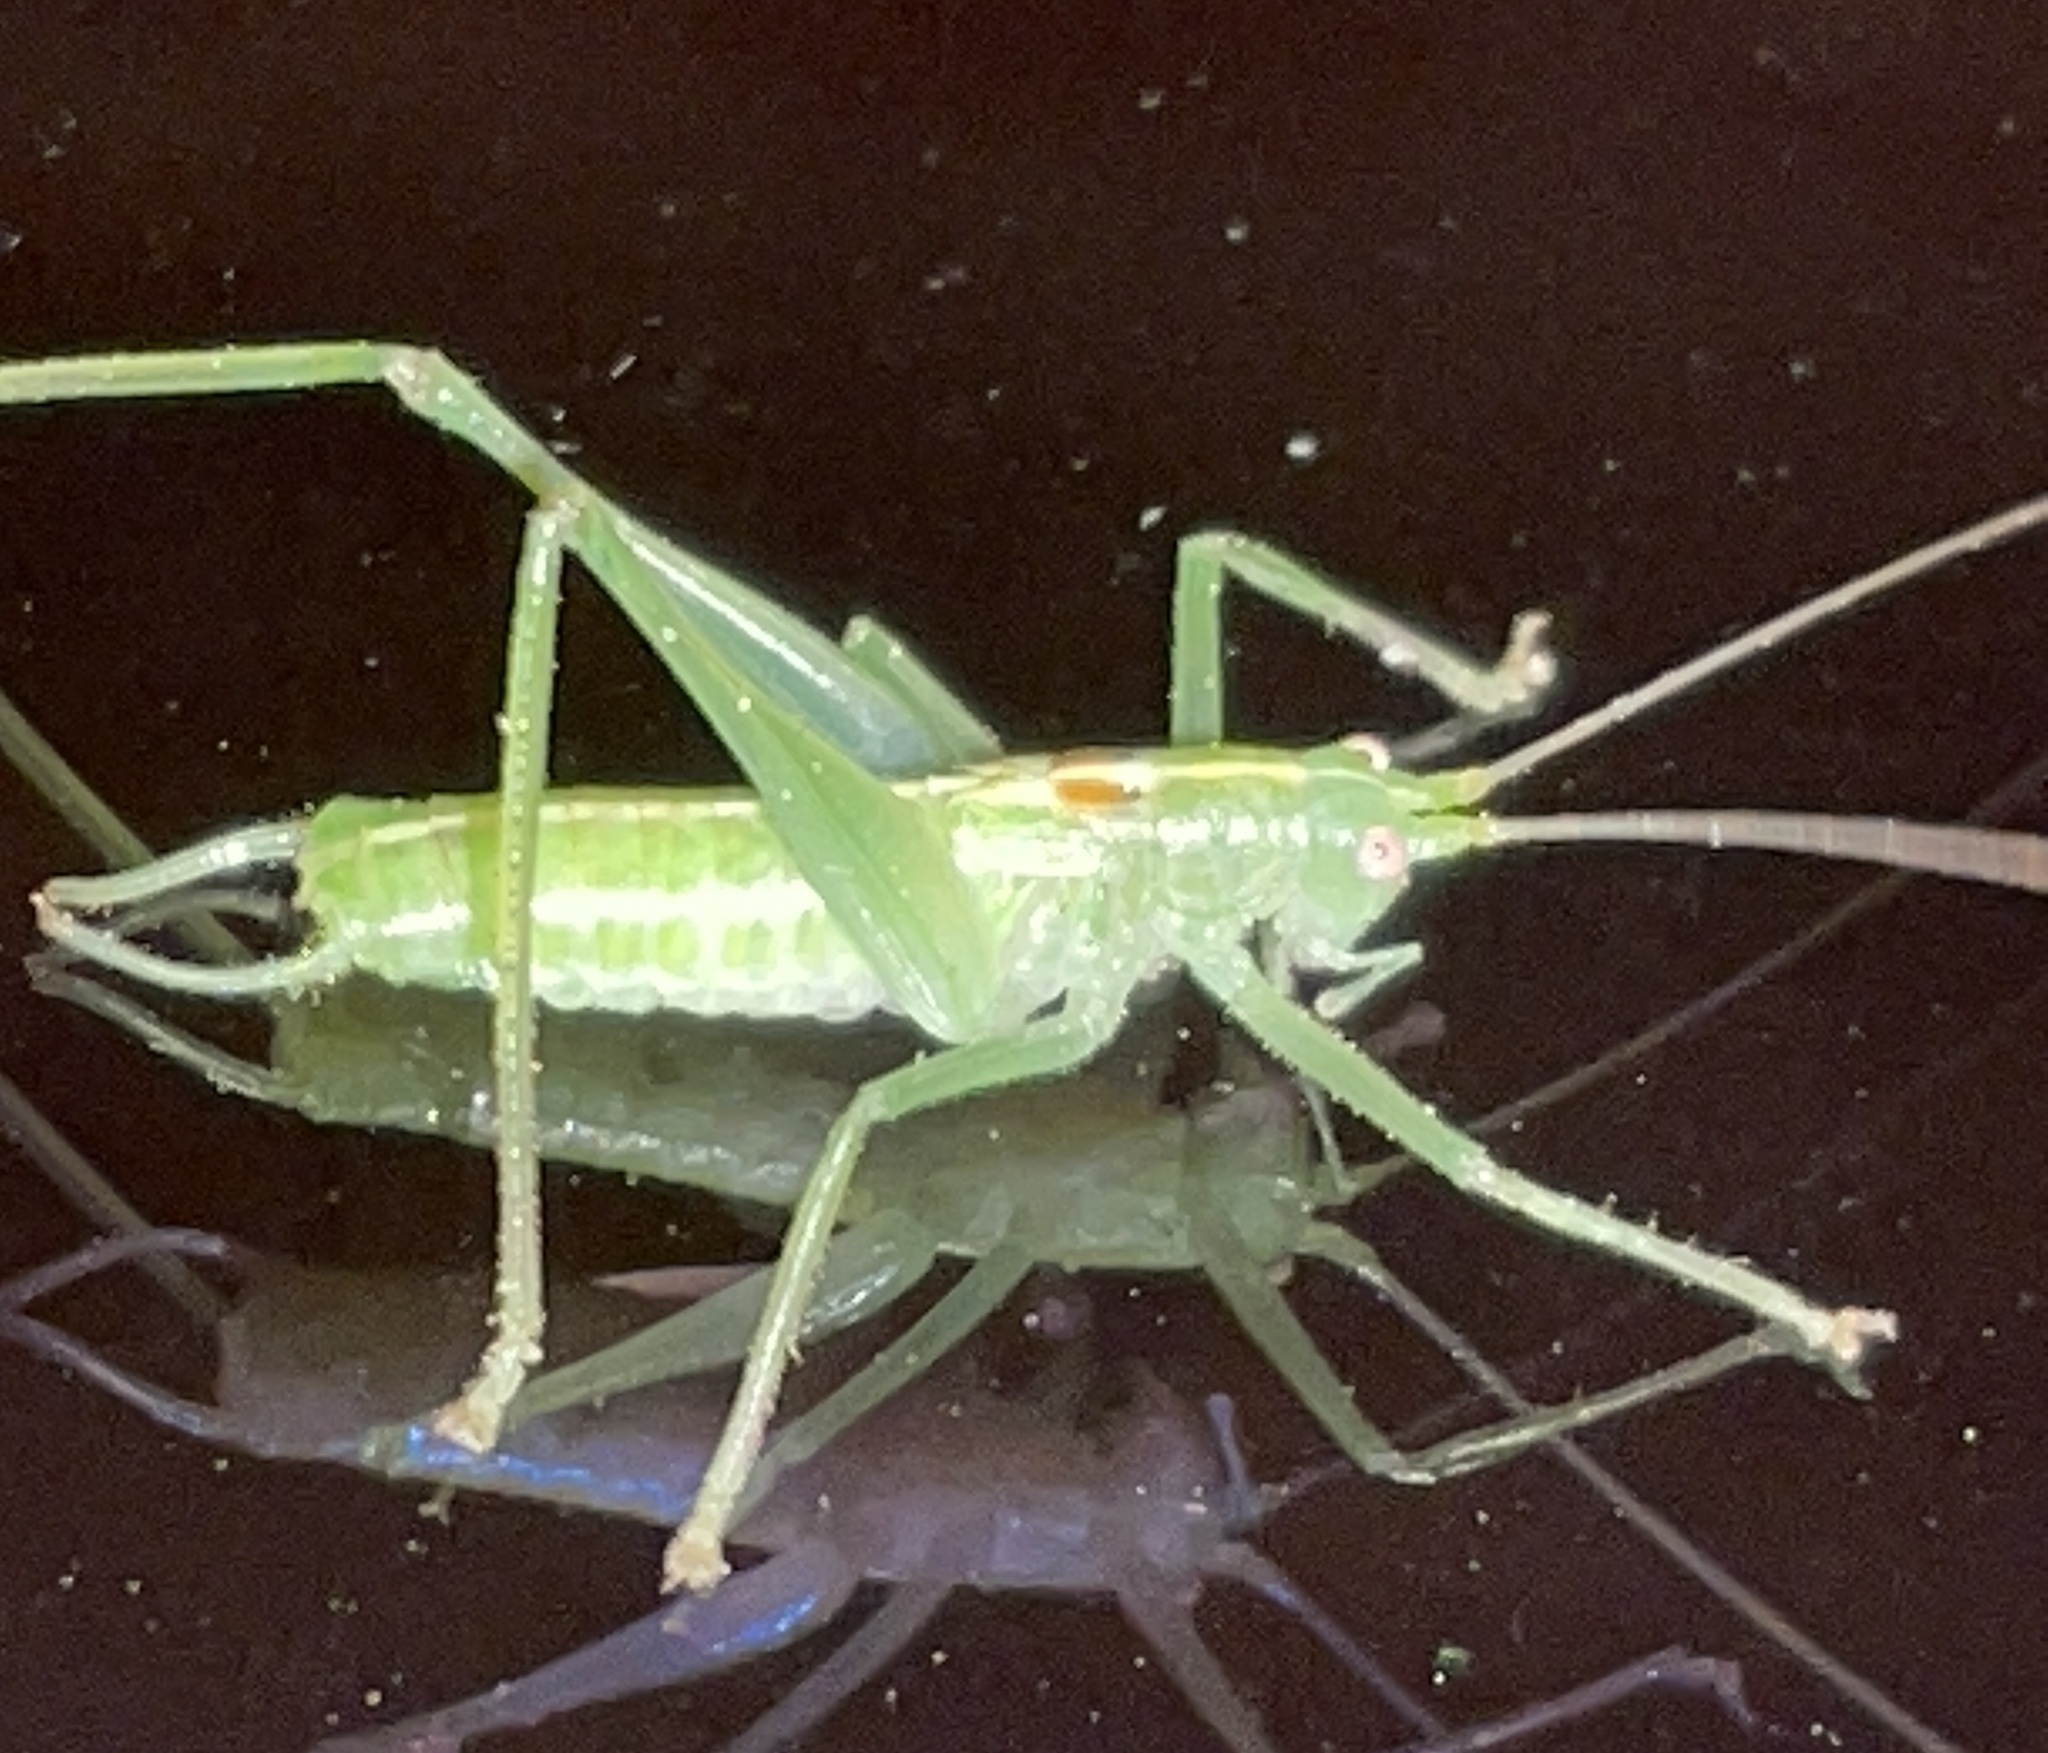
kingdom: Animalia
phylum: Arthropoda
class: Insecta
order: Orthoptera
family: Tettigoniidae
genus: Meconema
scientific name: Meconema meridionale
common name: Southern oak bush-cricket
